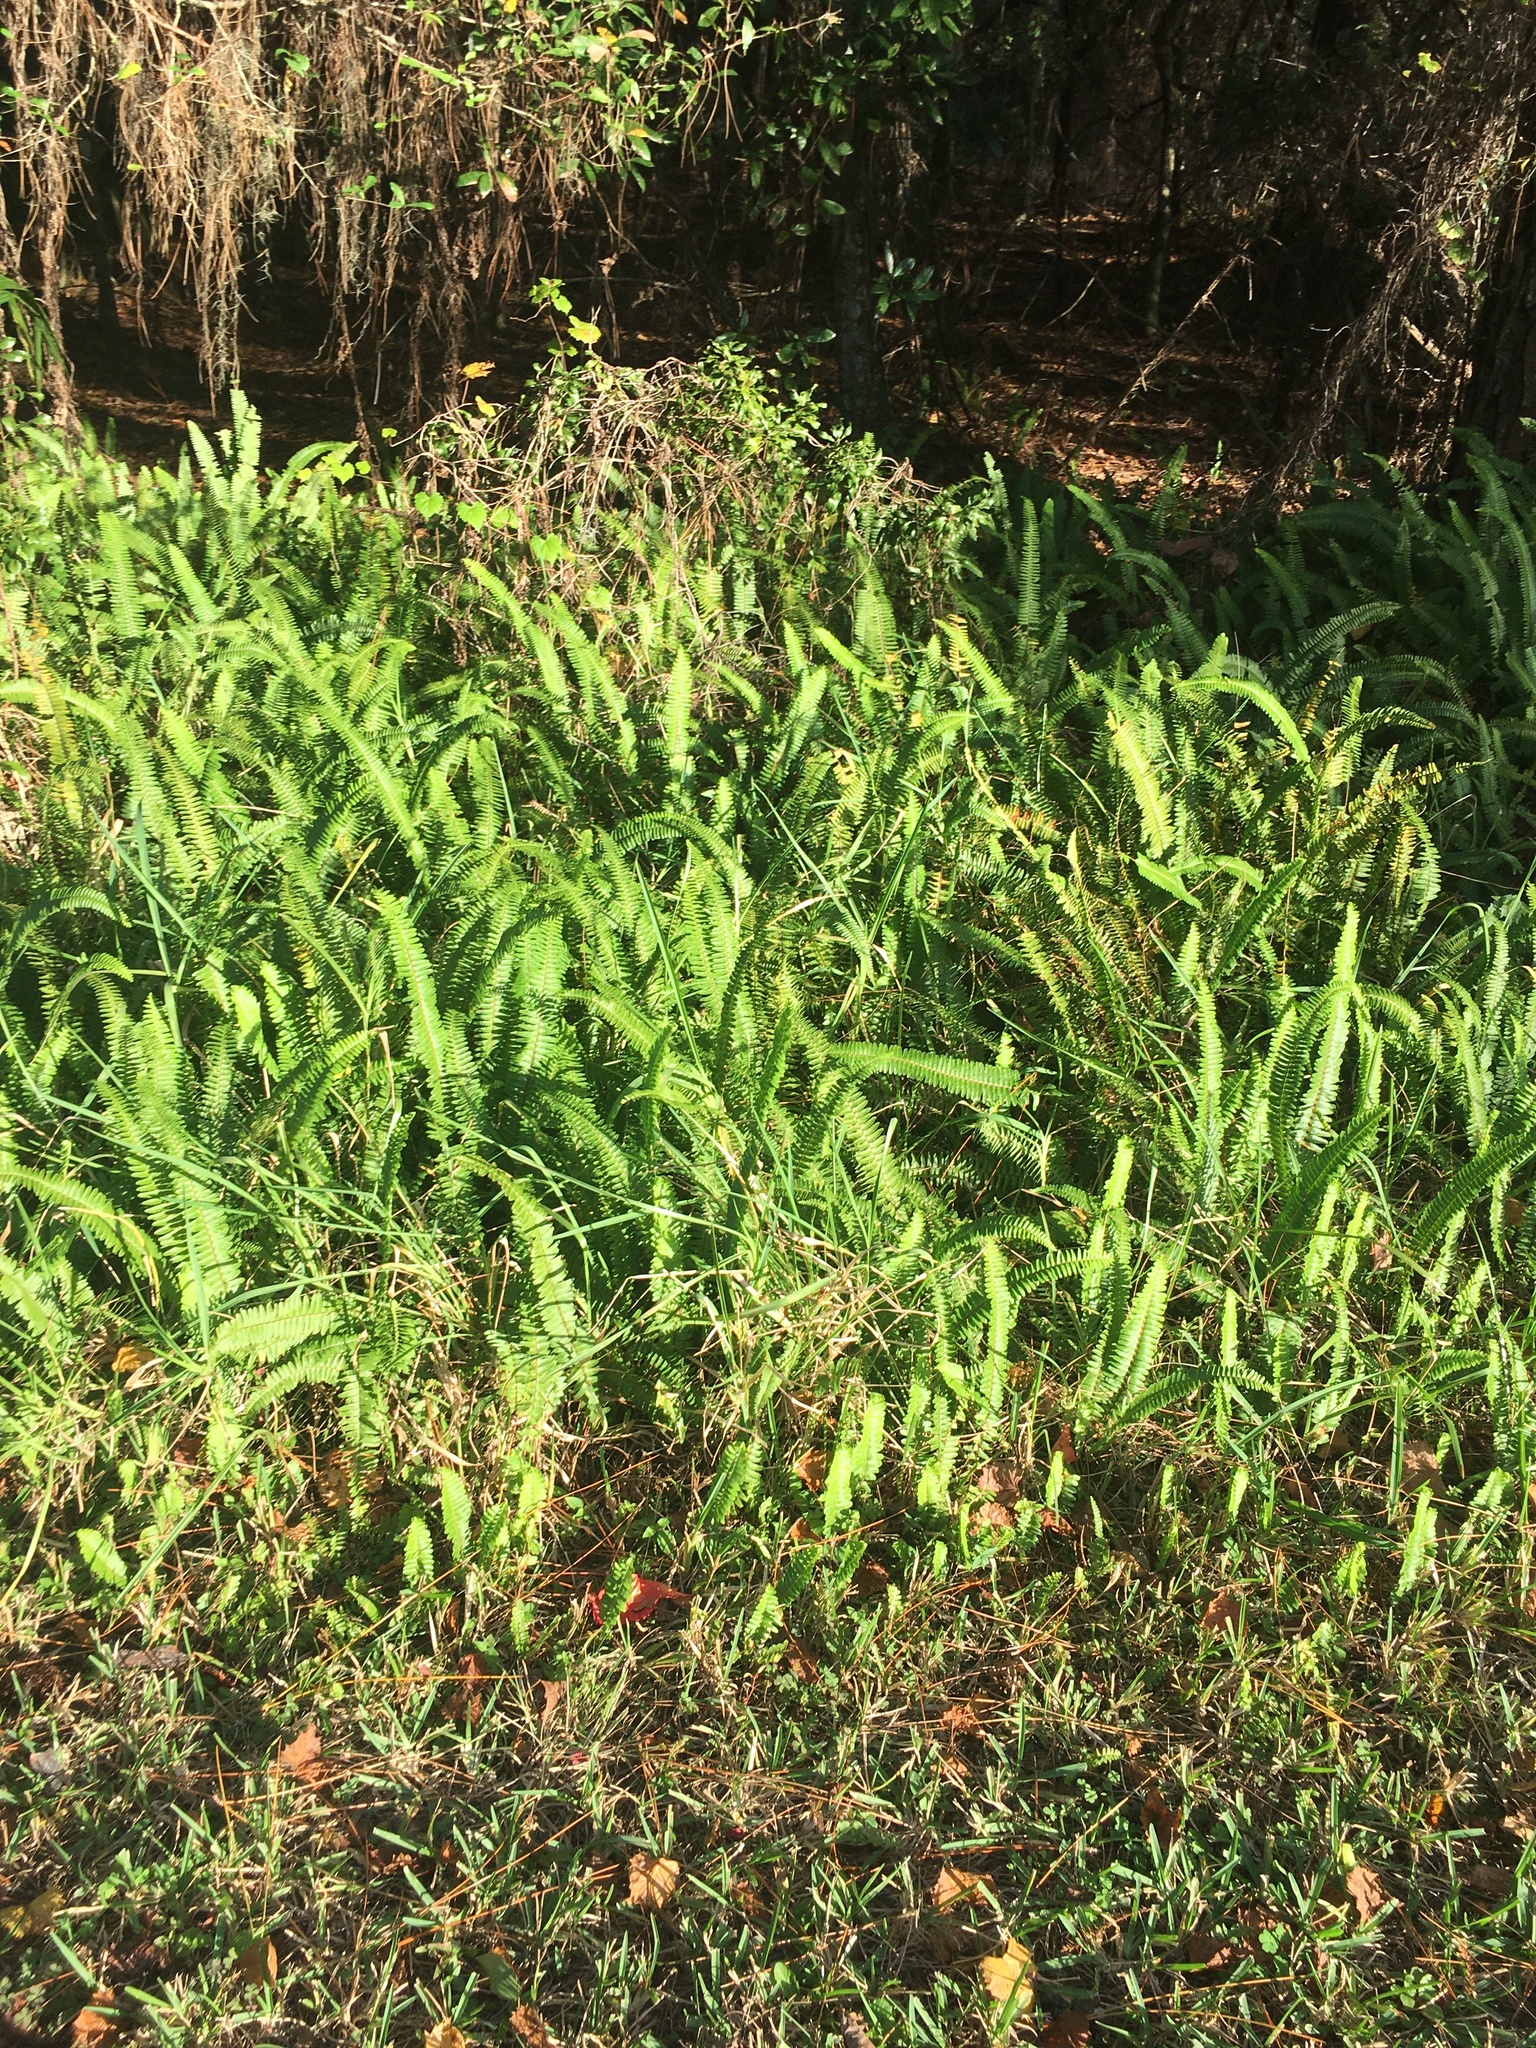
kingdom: Plantae
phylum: Tracheophyta
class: Polypodiopsida
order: Polypodiales
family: Nephrolepidaceae
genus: Nephrolepis
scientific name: Nephrolepis cordifolia
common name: Narrow swordfern
